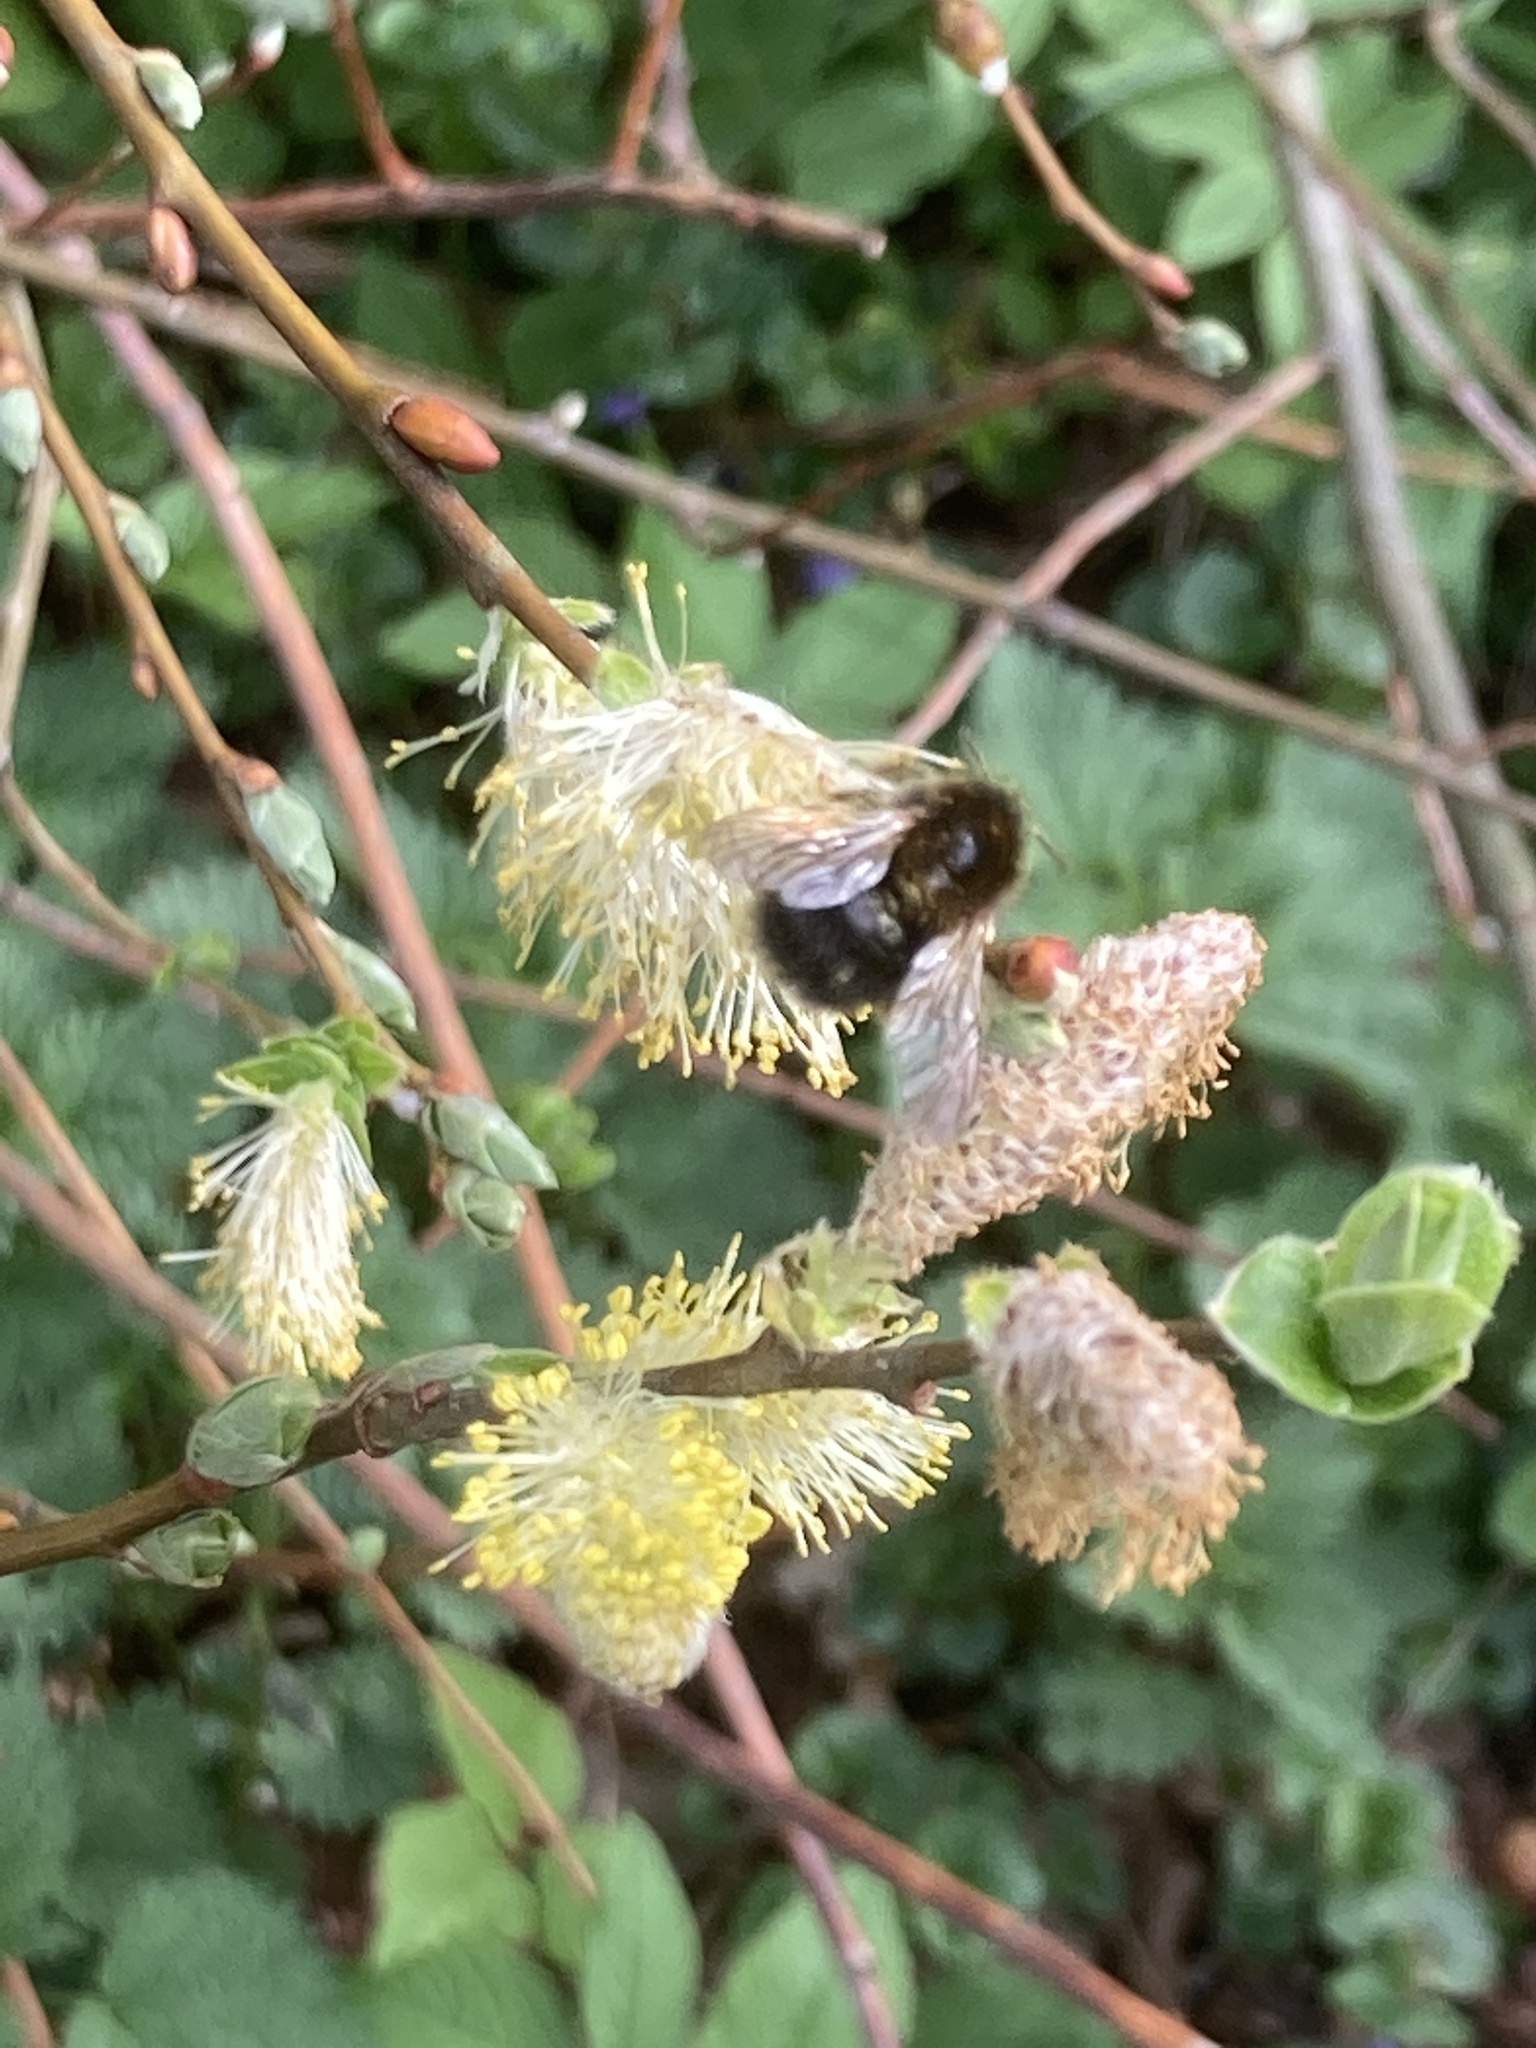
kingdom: Animalia
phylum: Arthropoda
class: Insecta
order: Hymenoptera
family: Apidae
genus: Bombus
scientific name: Bombus hypnorum
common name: New garden bumblebee
